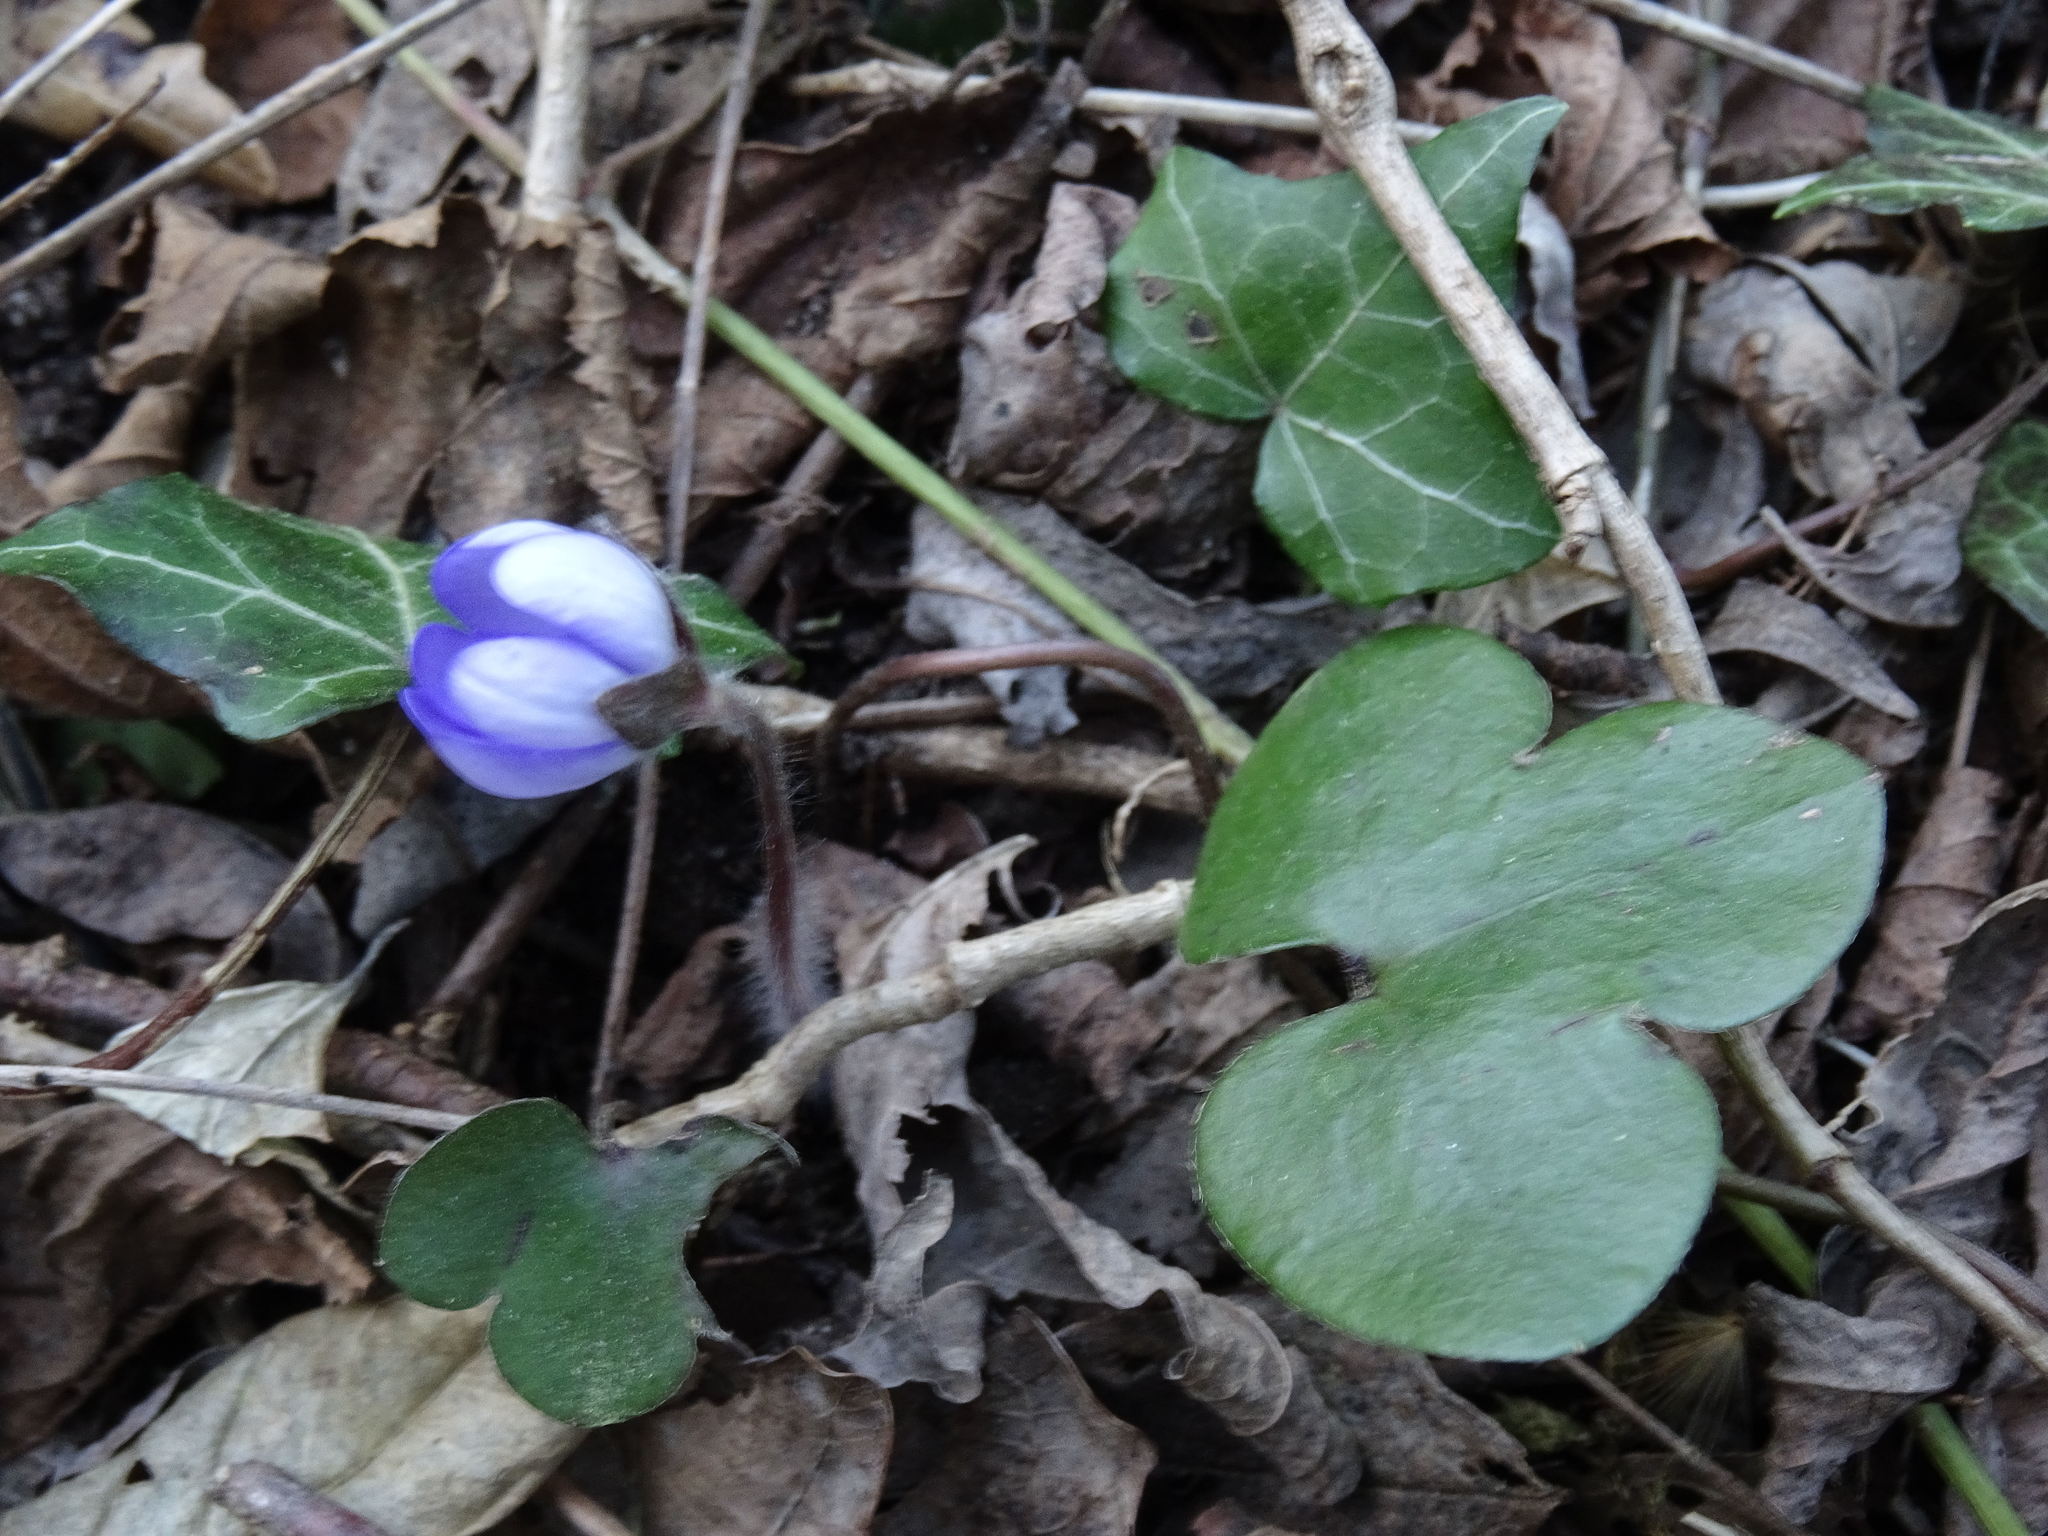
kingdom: Plantae
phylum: Tracheophyta
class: Magnoliopsida
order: Ranunculales
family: Ranunculaceae
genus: Hepatica
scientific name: Hepatica nobilis
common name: Liverleaf
